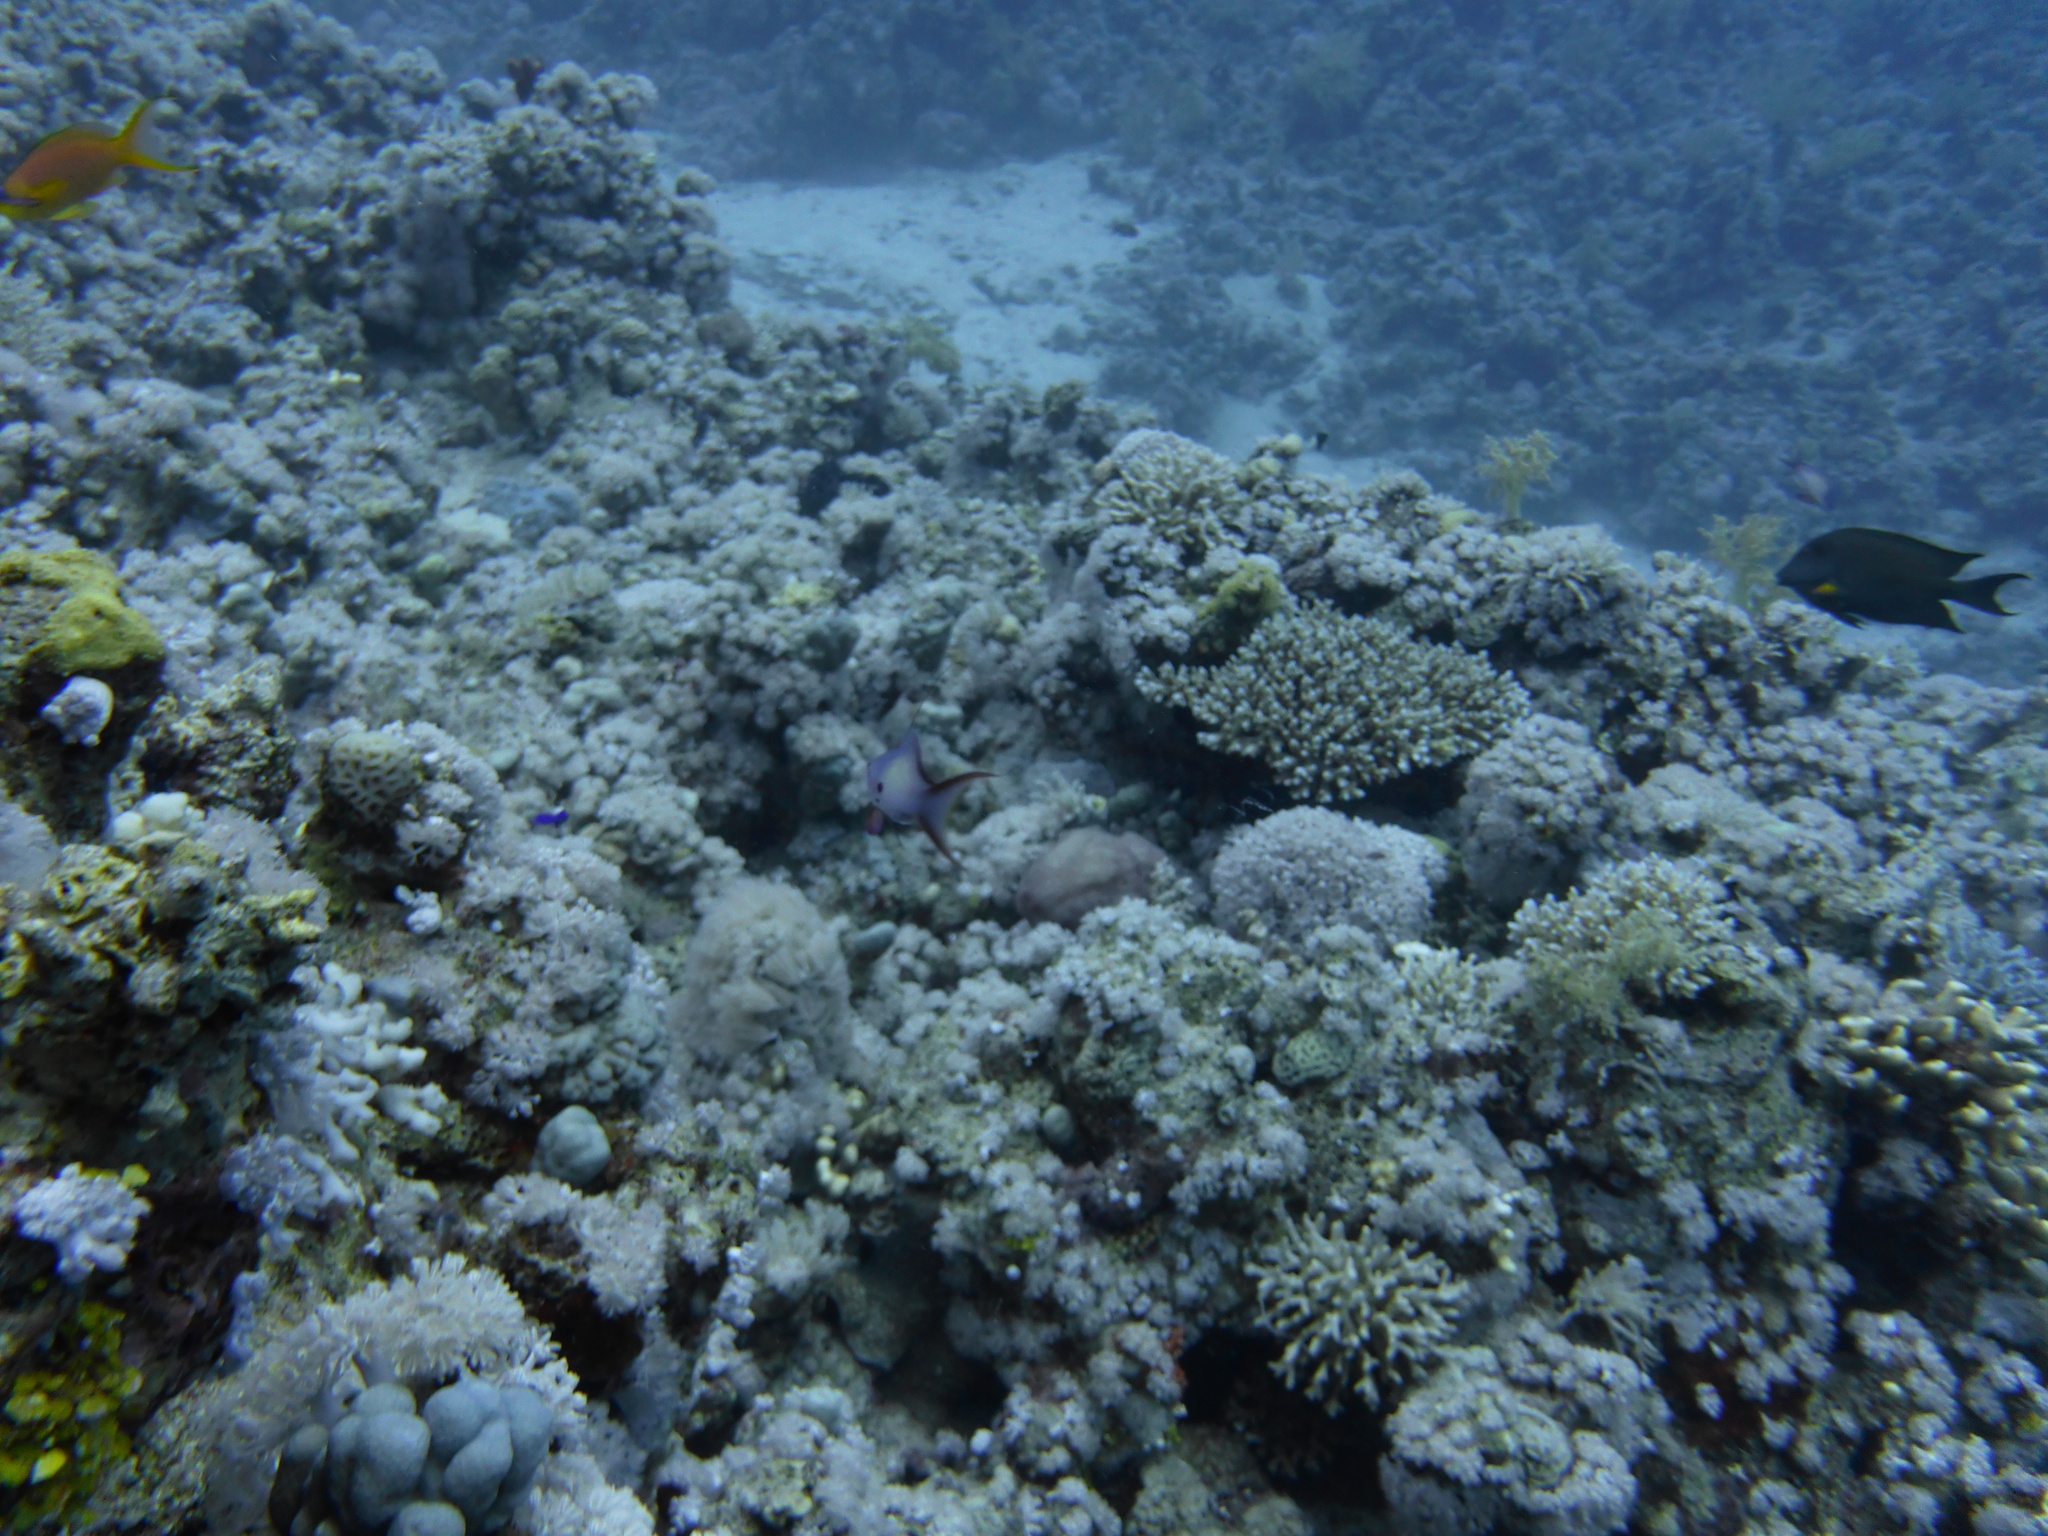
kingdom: Animalia
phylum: Chordata
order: Perciformes
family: Serranidae
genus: Pseudanthias
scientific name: Pseudanthias squamipinnis
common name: Scalefin anthias
